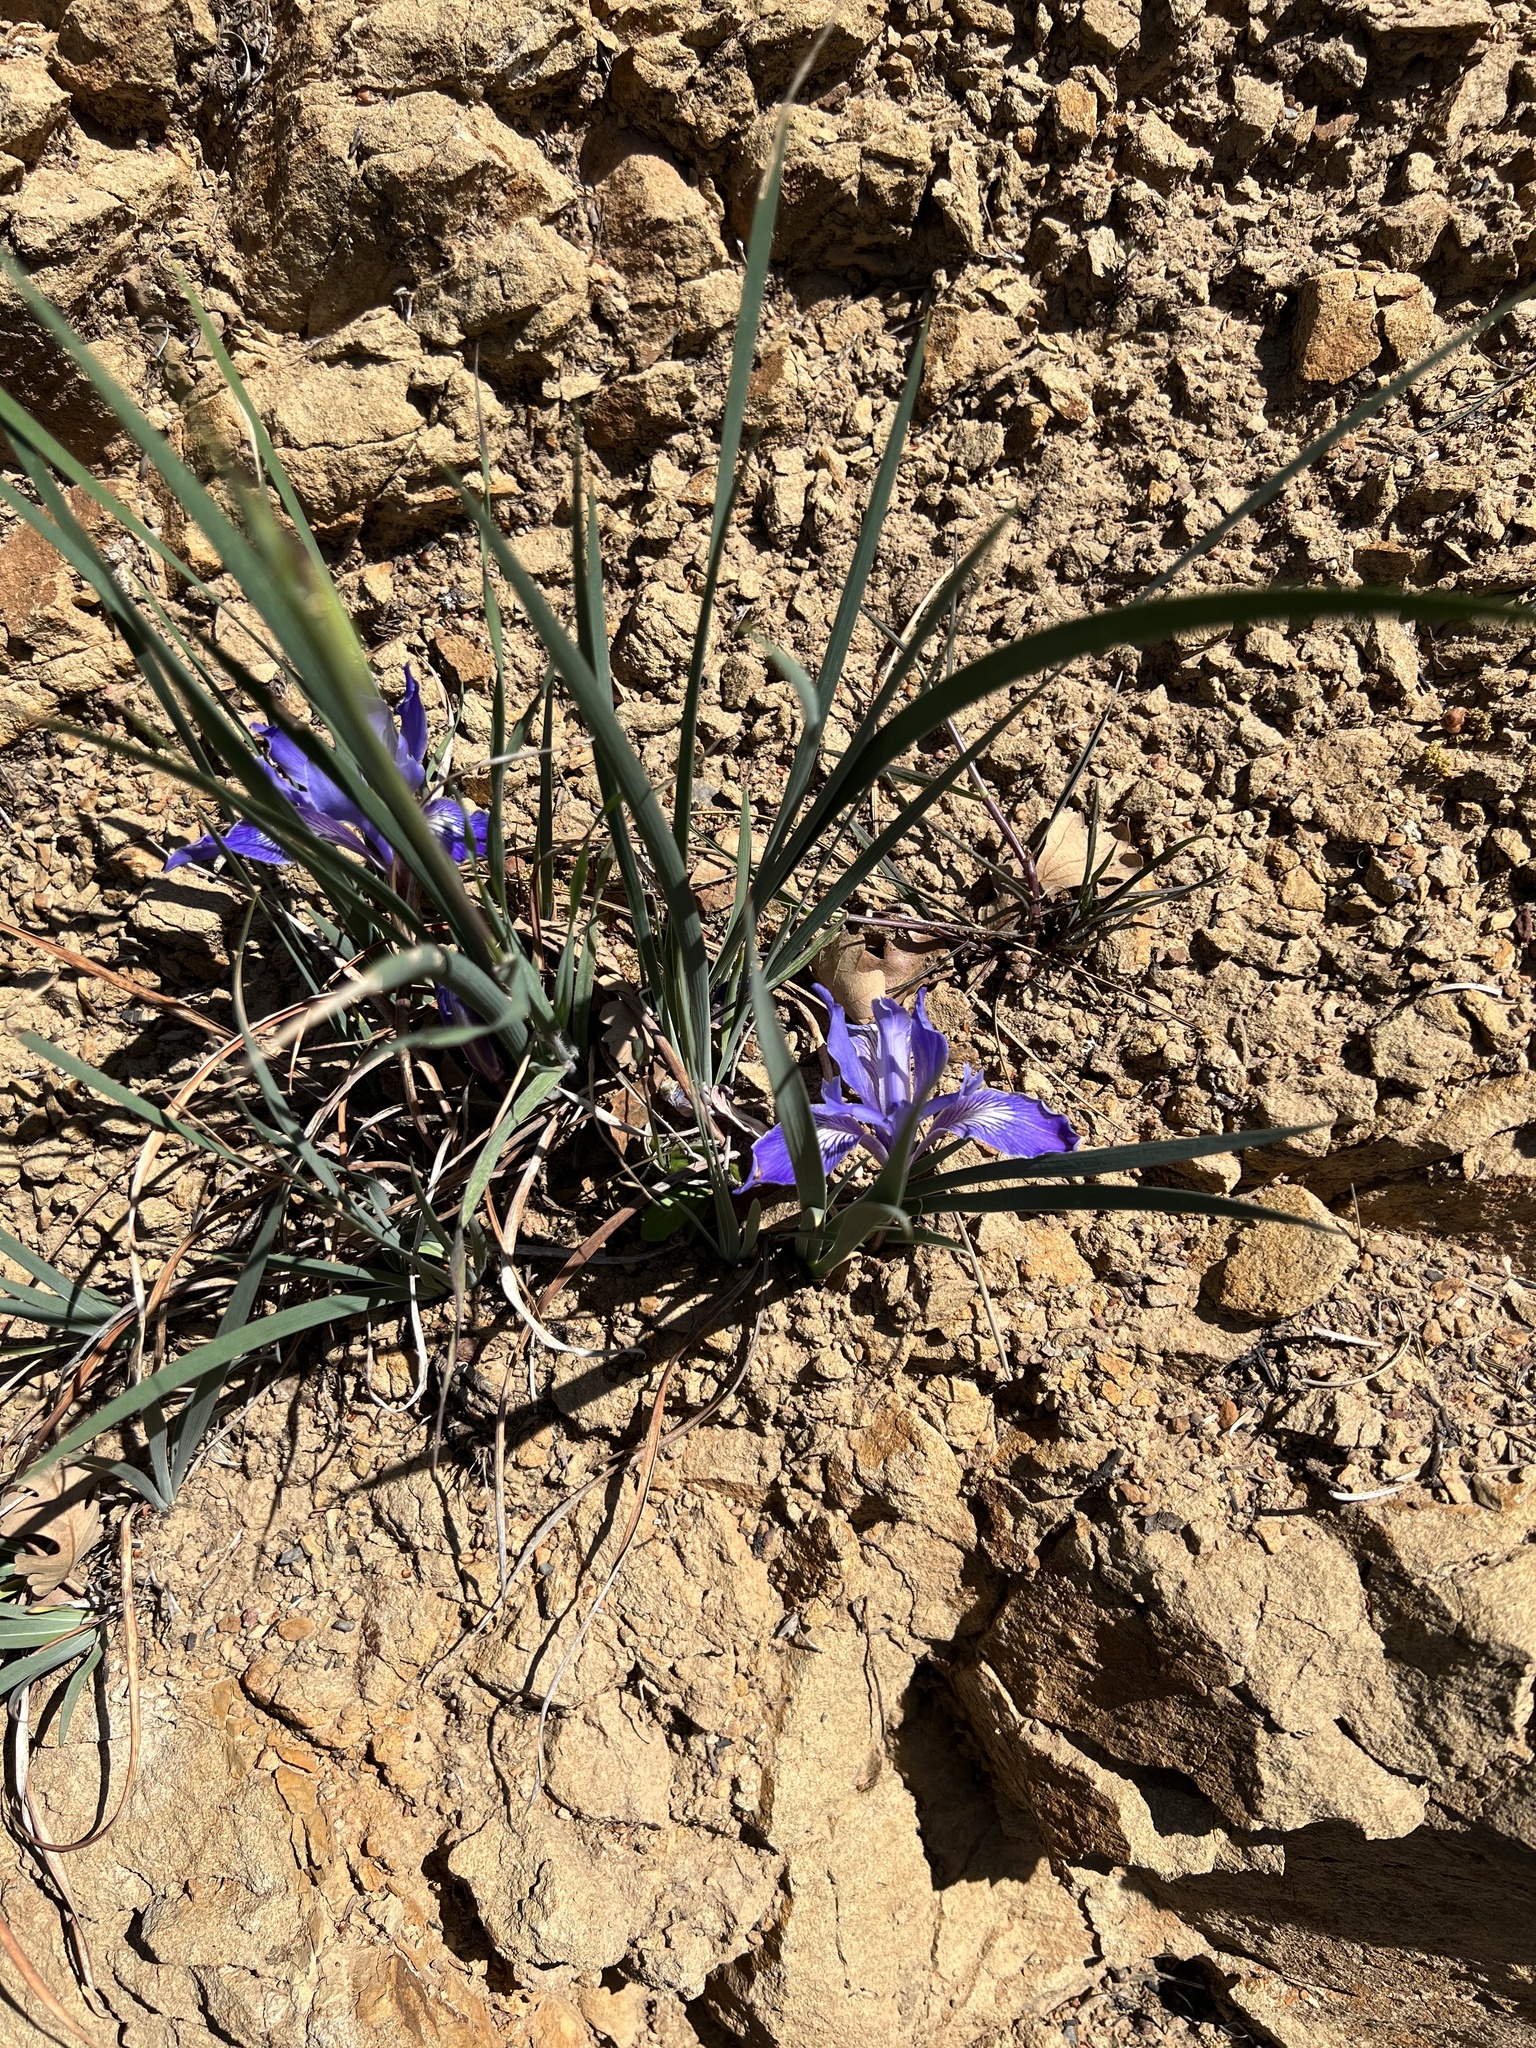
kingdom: Plantae
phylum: Tracheophyta
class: Liliopsida
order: Asparagales
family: Iridaceae
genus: Iris
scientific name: Iris macrosiphon
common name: Ground iris
